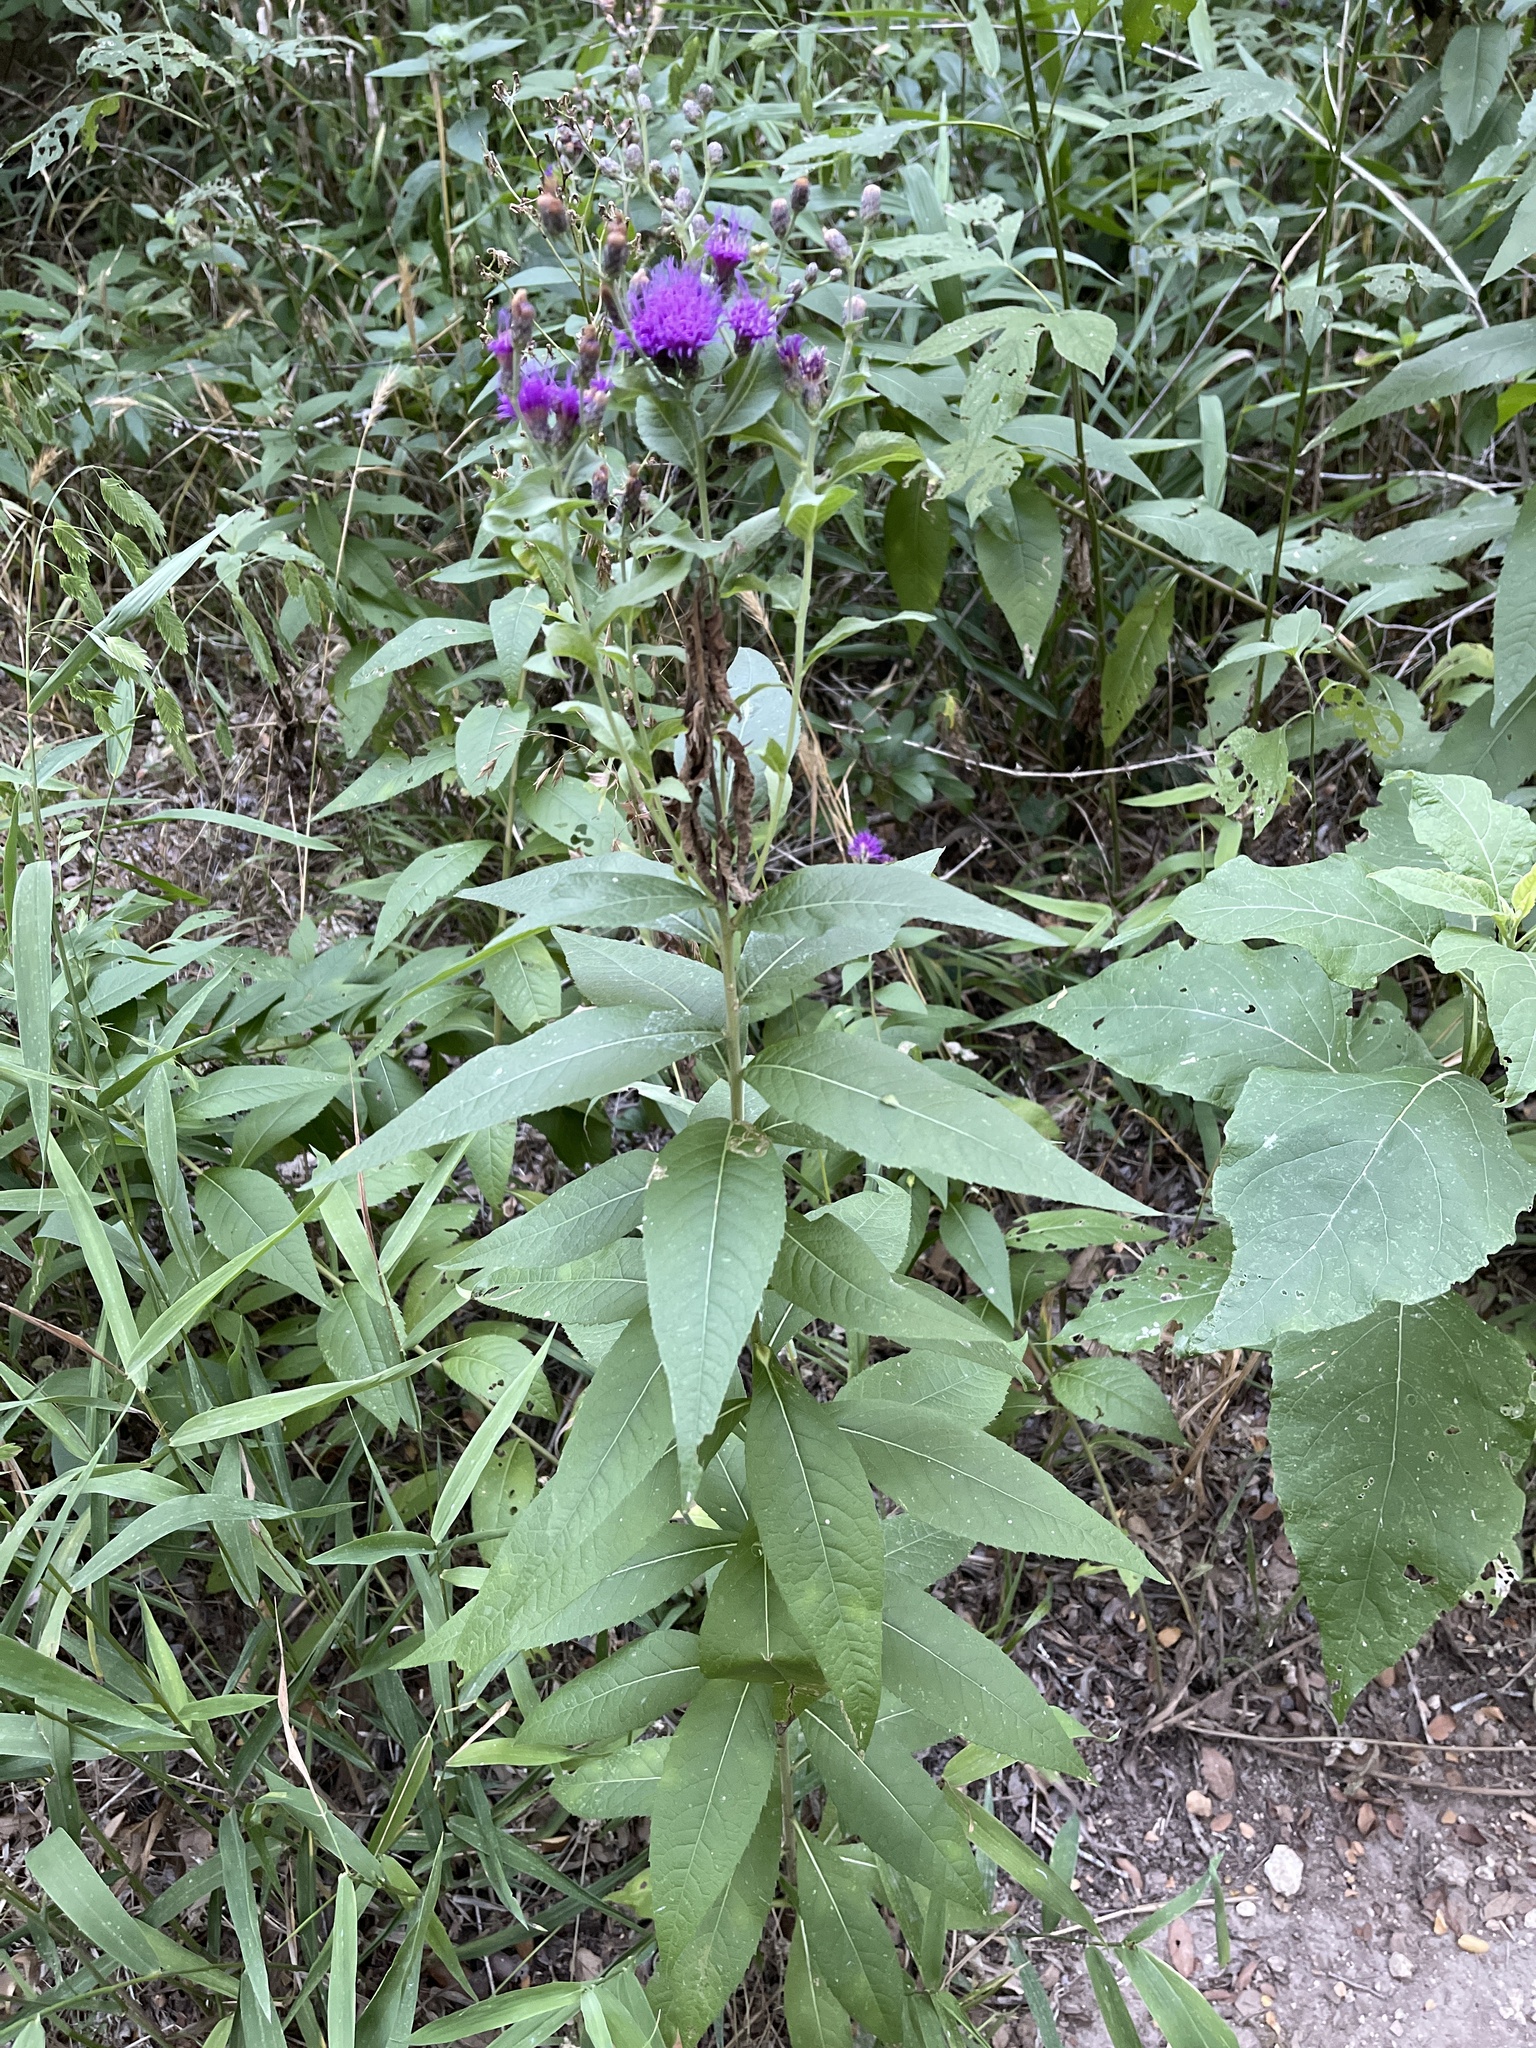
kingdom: Plantae
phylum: Tracheophyta
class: Magnoliopsida
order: Asterales
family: Asteraceae
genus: Vernonia
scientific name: Vernonia baldwinii
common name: Western ironweed
